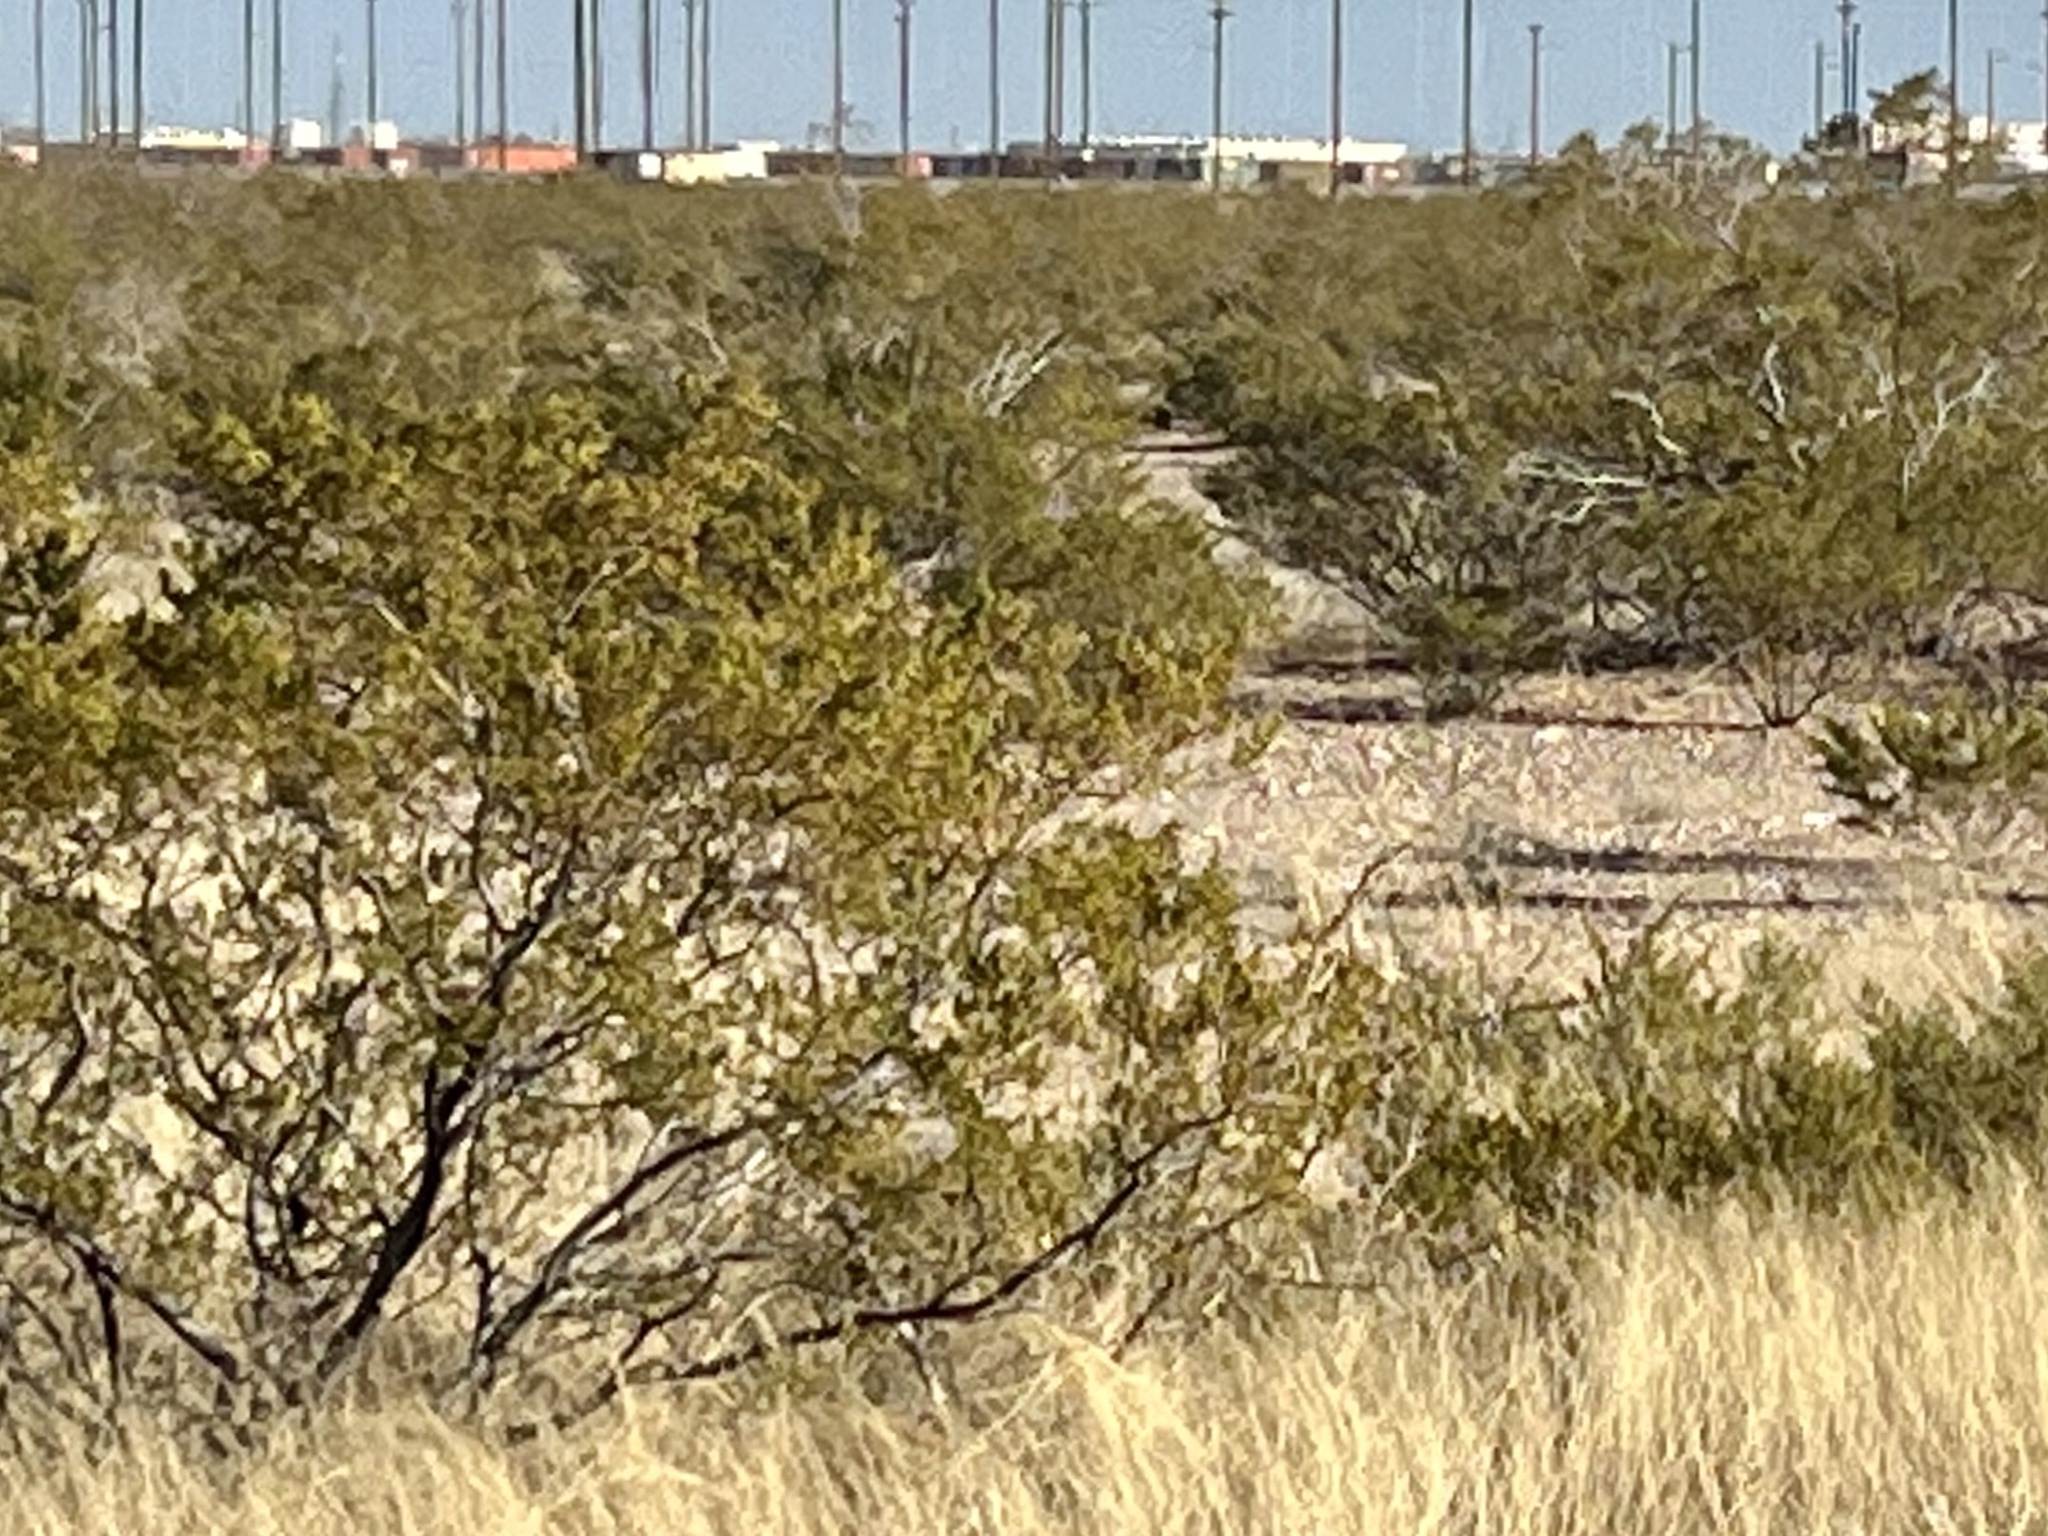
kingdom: Plantae
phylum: Tracheophyta
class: Magnoliopsida
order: Zygophyllales
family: Zygophyllaceae
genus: Larrea
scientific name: Larrea tridentata
